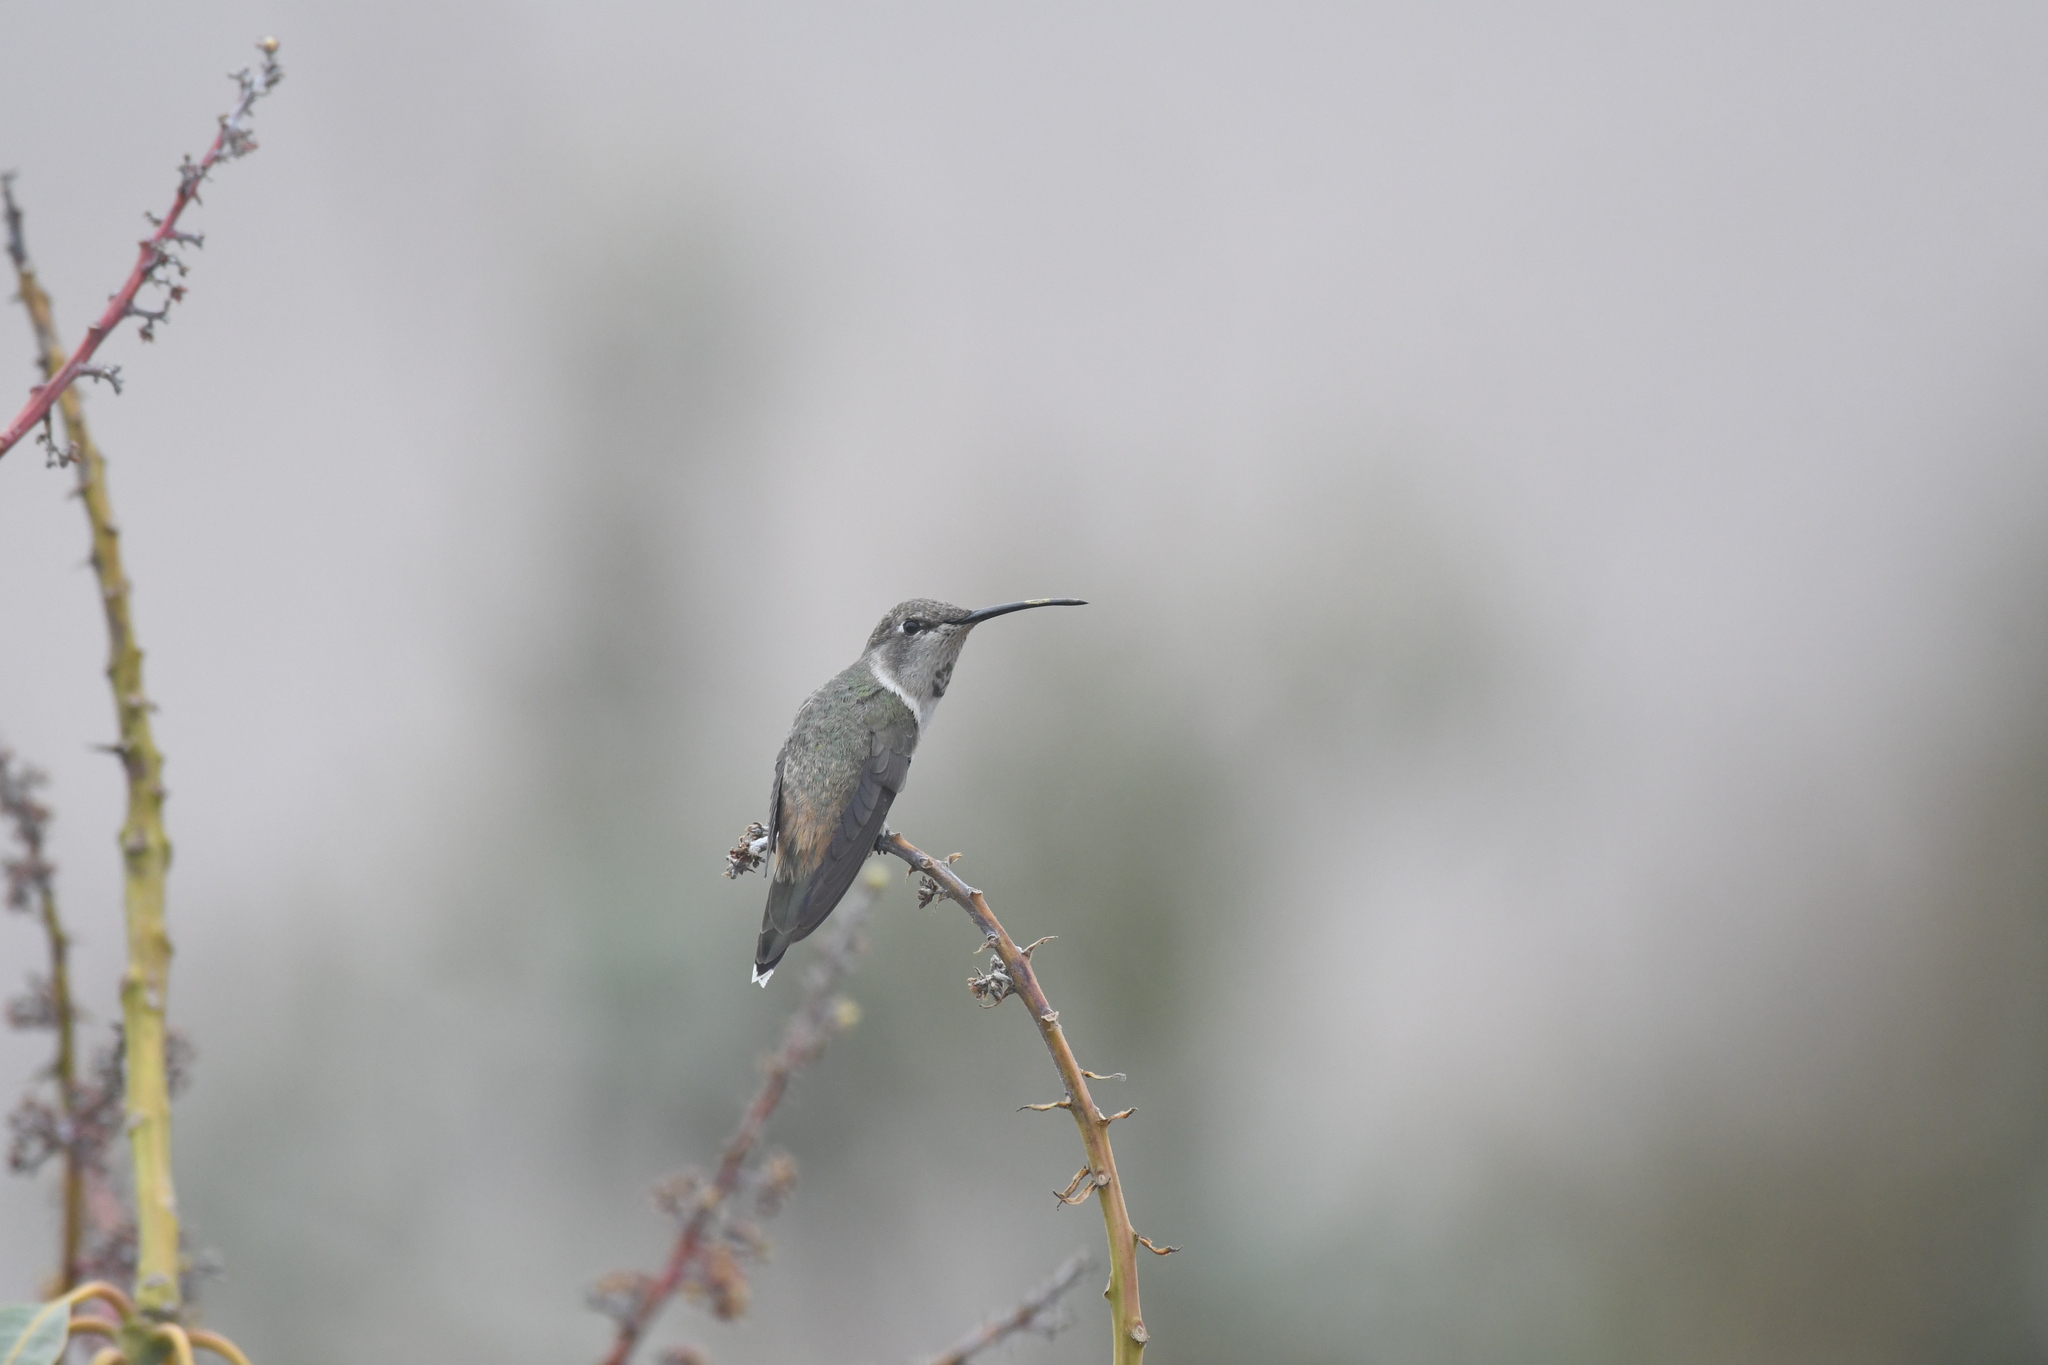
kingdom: Animalia
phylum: Chordata
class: Aves
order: Apodiformes
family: Trochilidae
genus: Rhodopis
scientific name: Rhodopis vesper
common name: Oasis hummingbird
